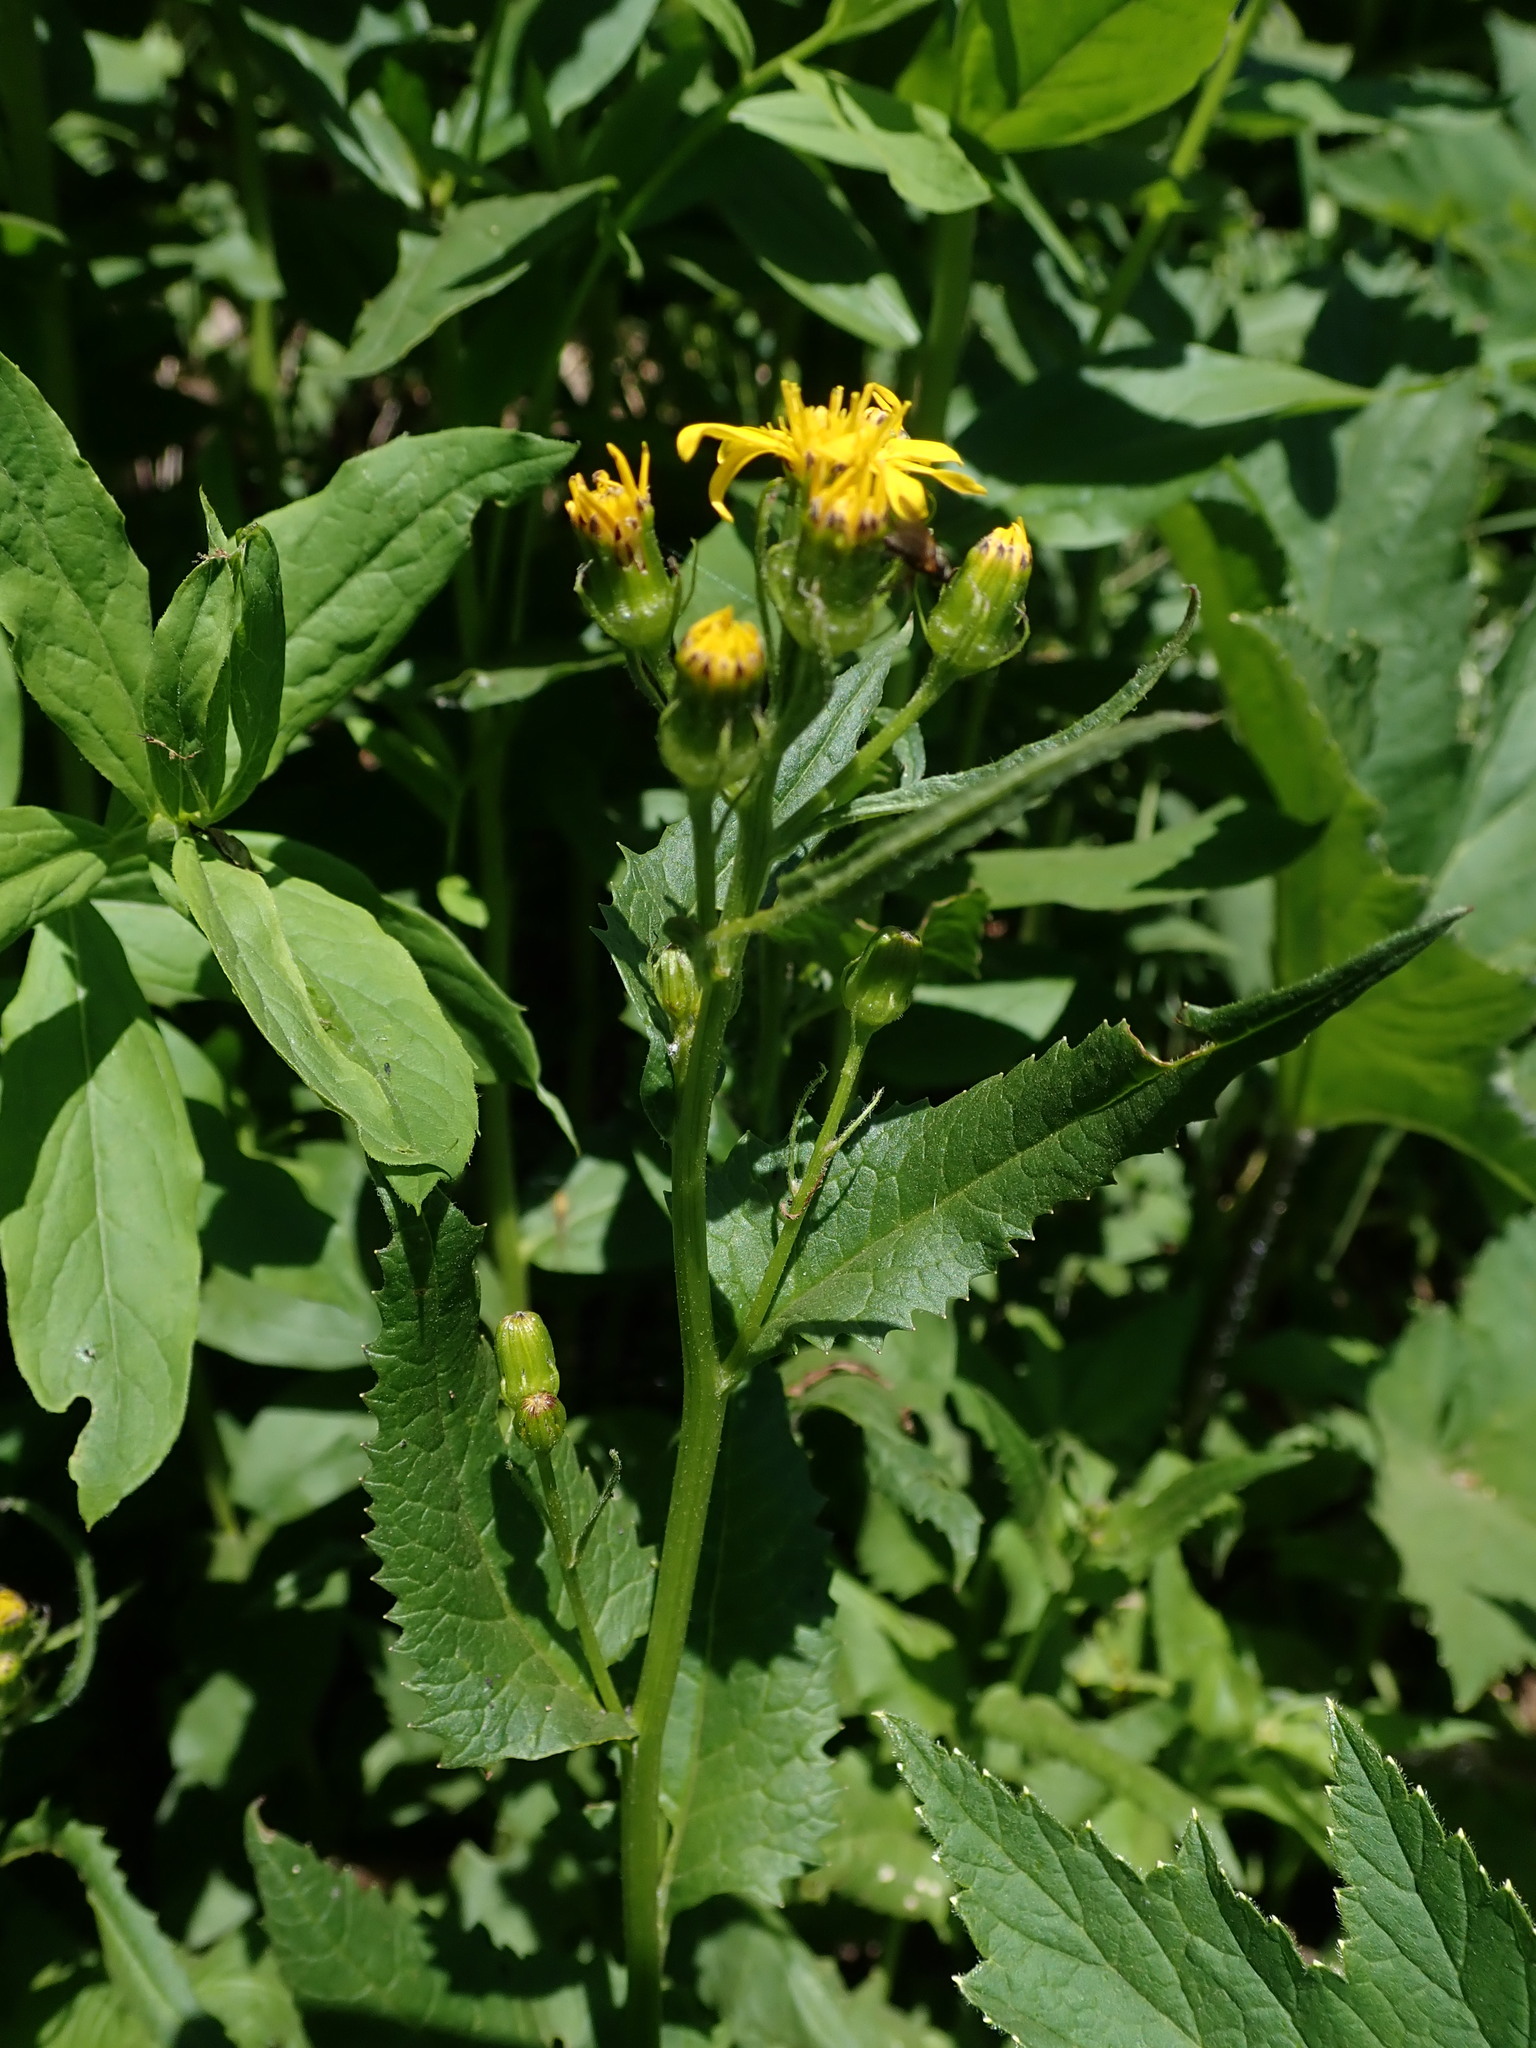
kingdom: Plantae
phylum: Tracheophyta
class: Magnoliopsida
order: Asterales
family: Asteraceae
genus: Senecio
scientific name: Senecio triangularis
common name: Arrowleaf butterweed
